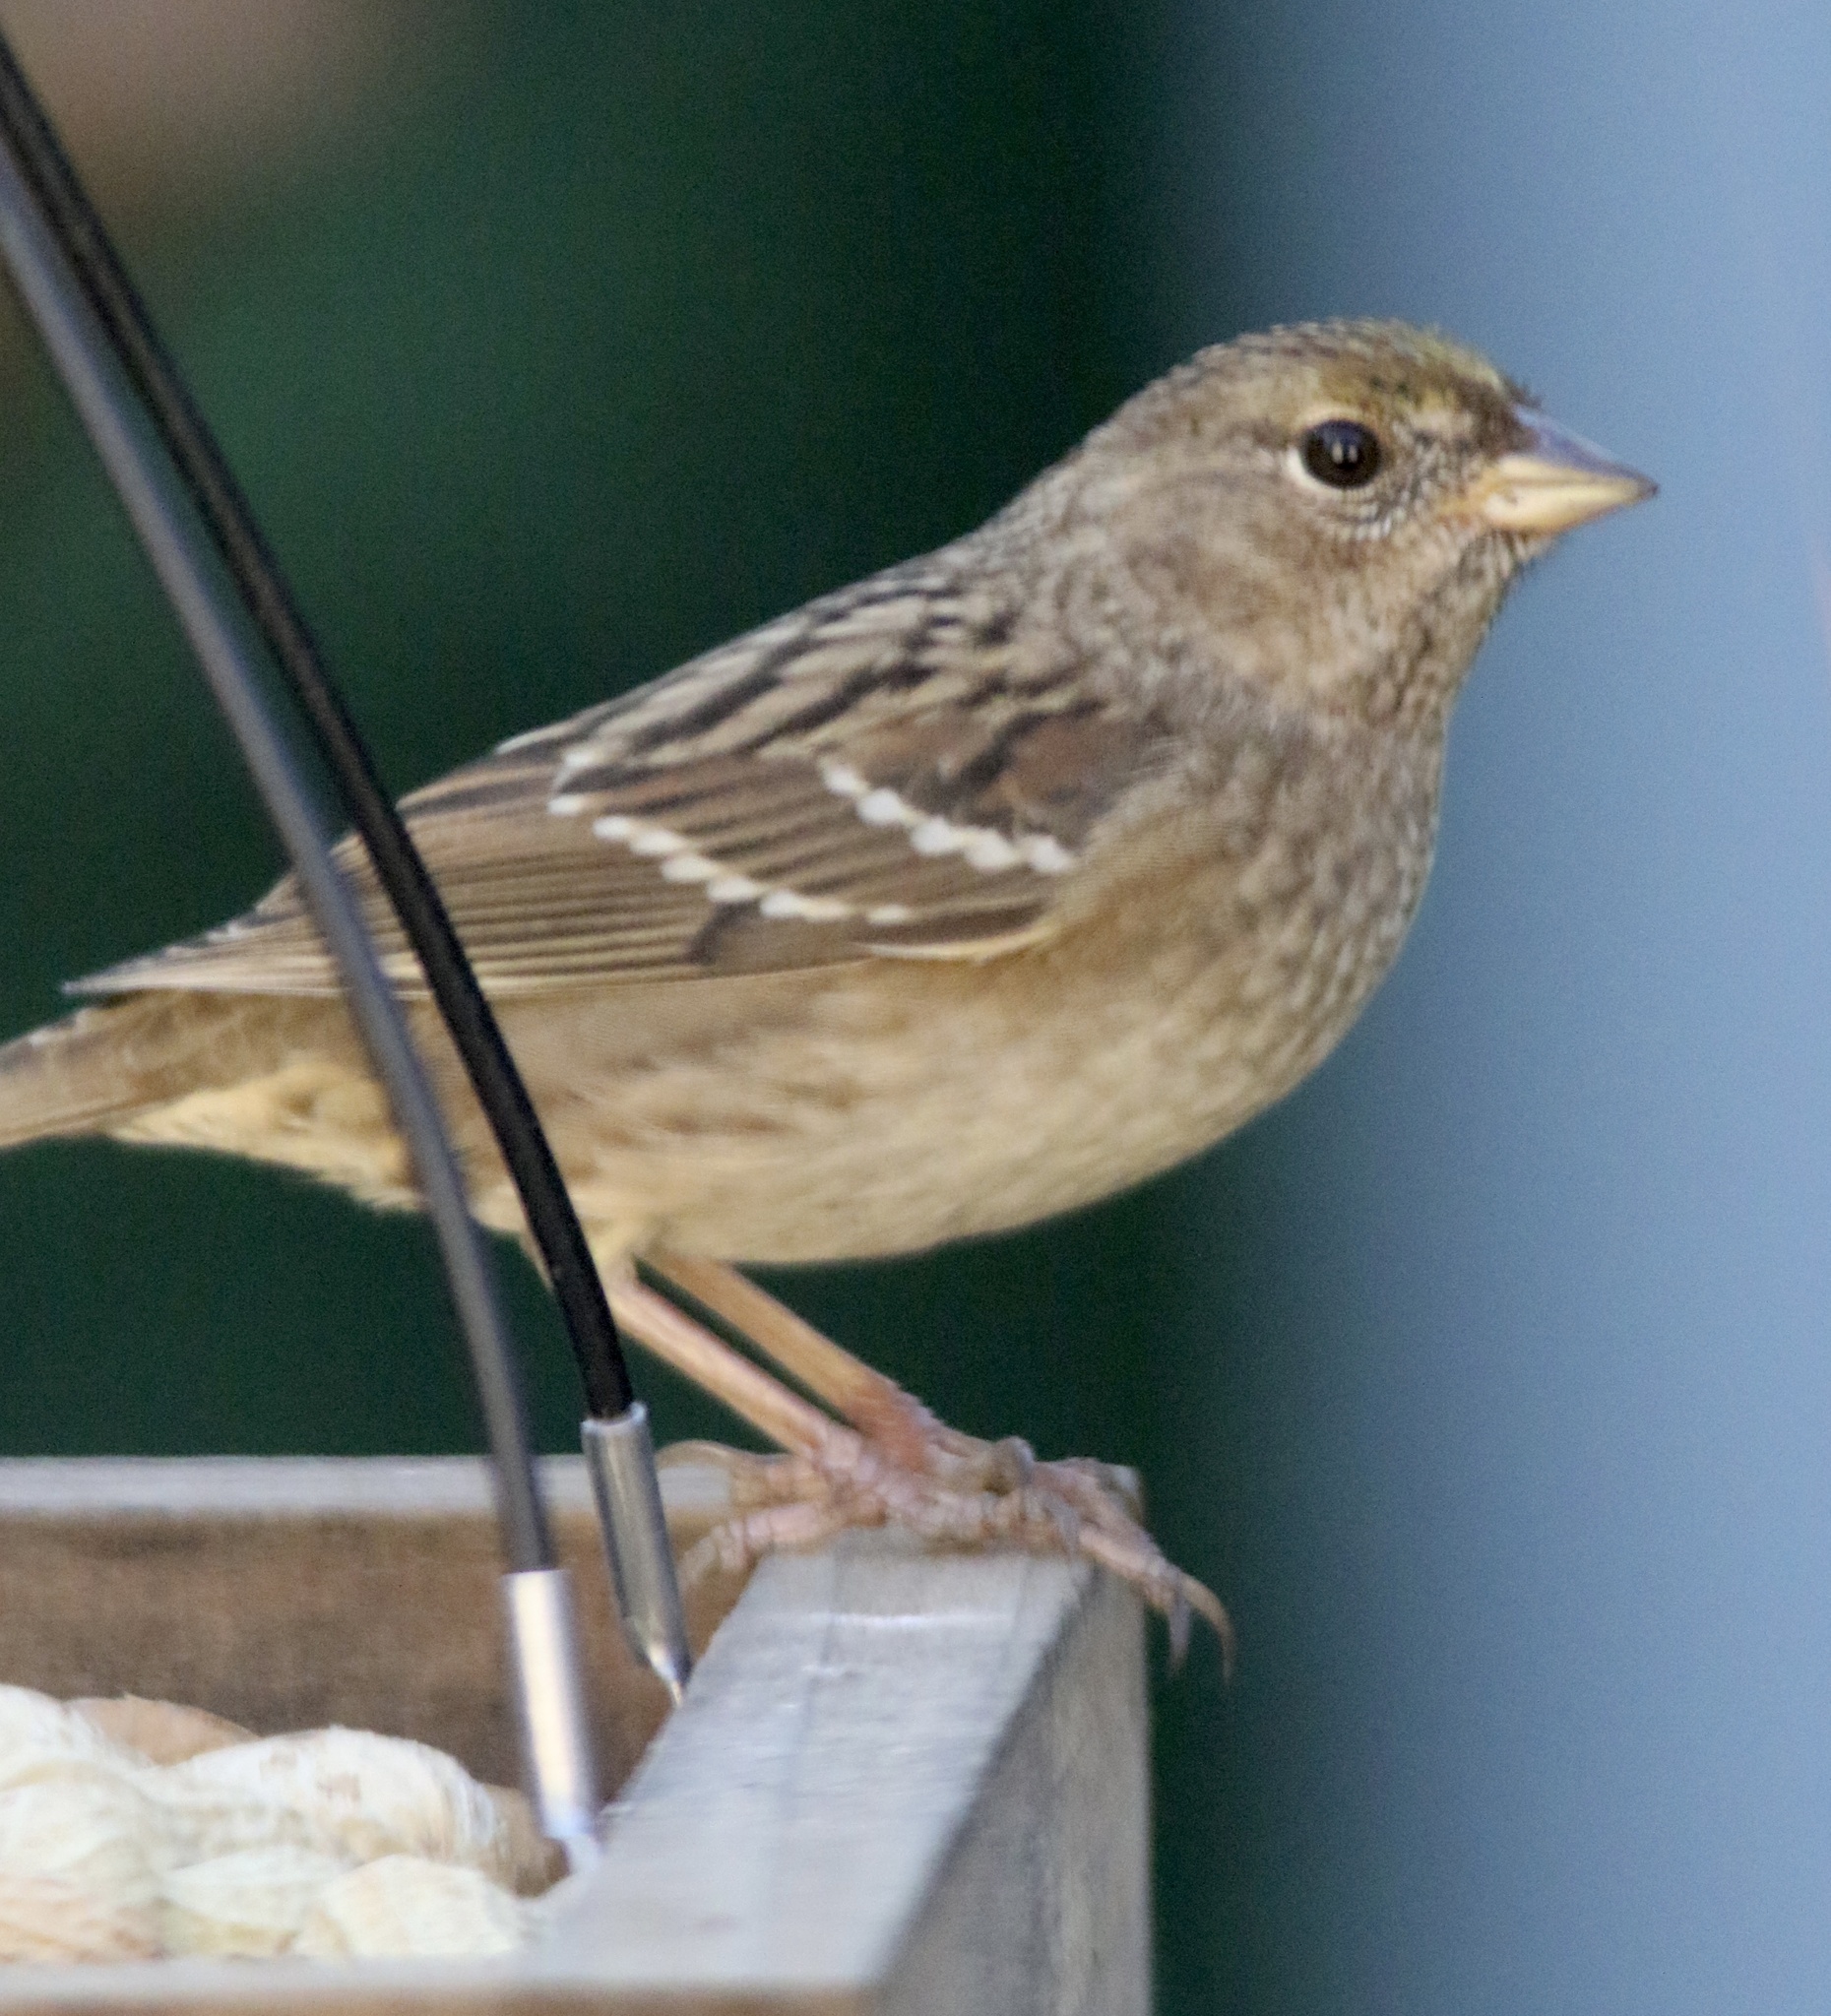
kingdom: Animalia
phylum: Chordata
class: Aves
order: Passeriformes
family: Passerellidae
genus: Zonotrichia
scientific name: Zonotrichia atricapilla
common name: Golden-crowned sparrow
